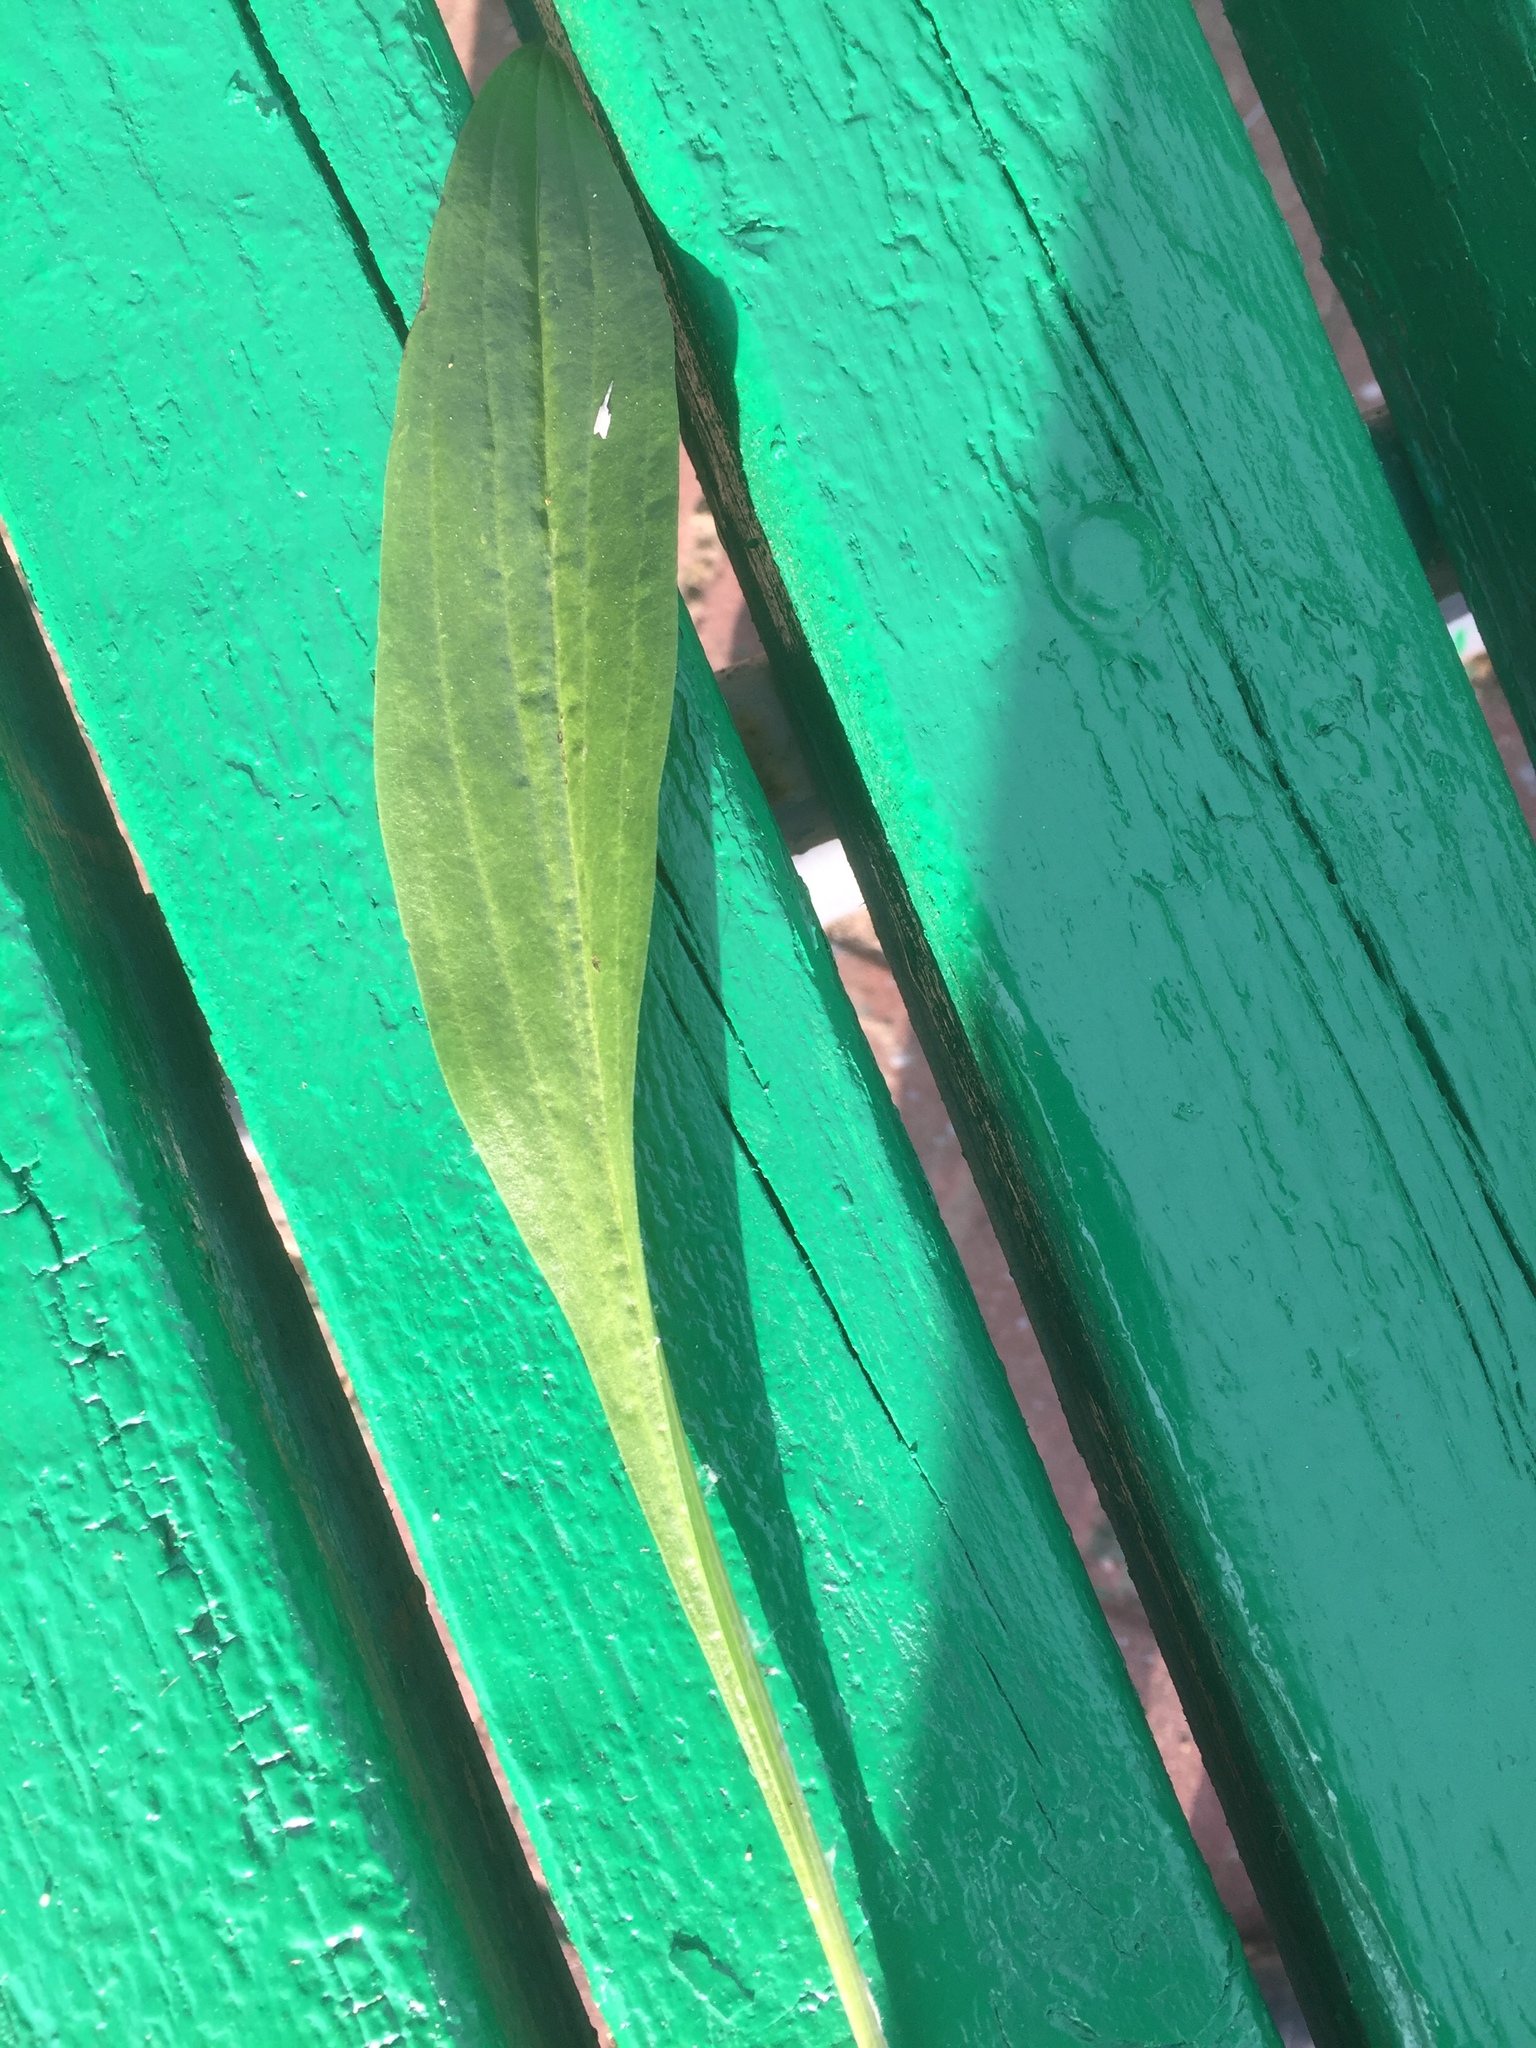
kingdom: Plantae
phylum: Tracheophyta
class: Magnoliopsida
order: Asterales
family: Asteraceae
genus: Scorzonera
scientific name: Scorzonera humilis
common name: Viper's-grass
